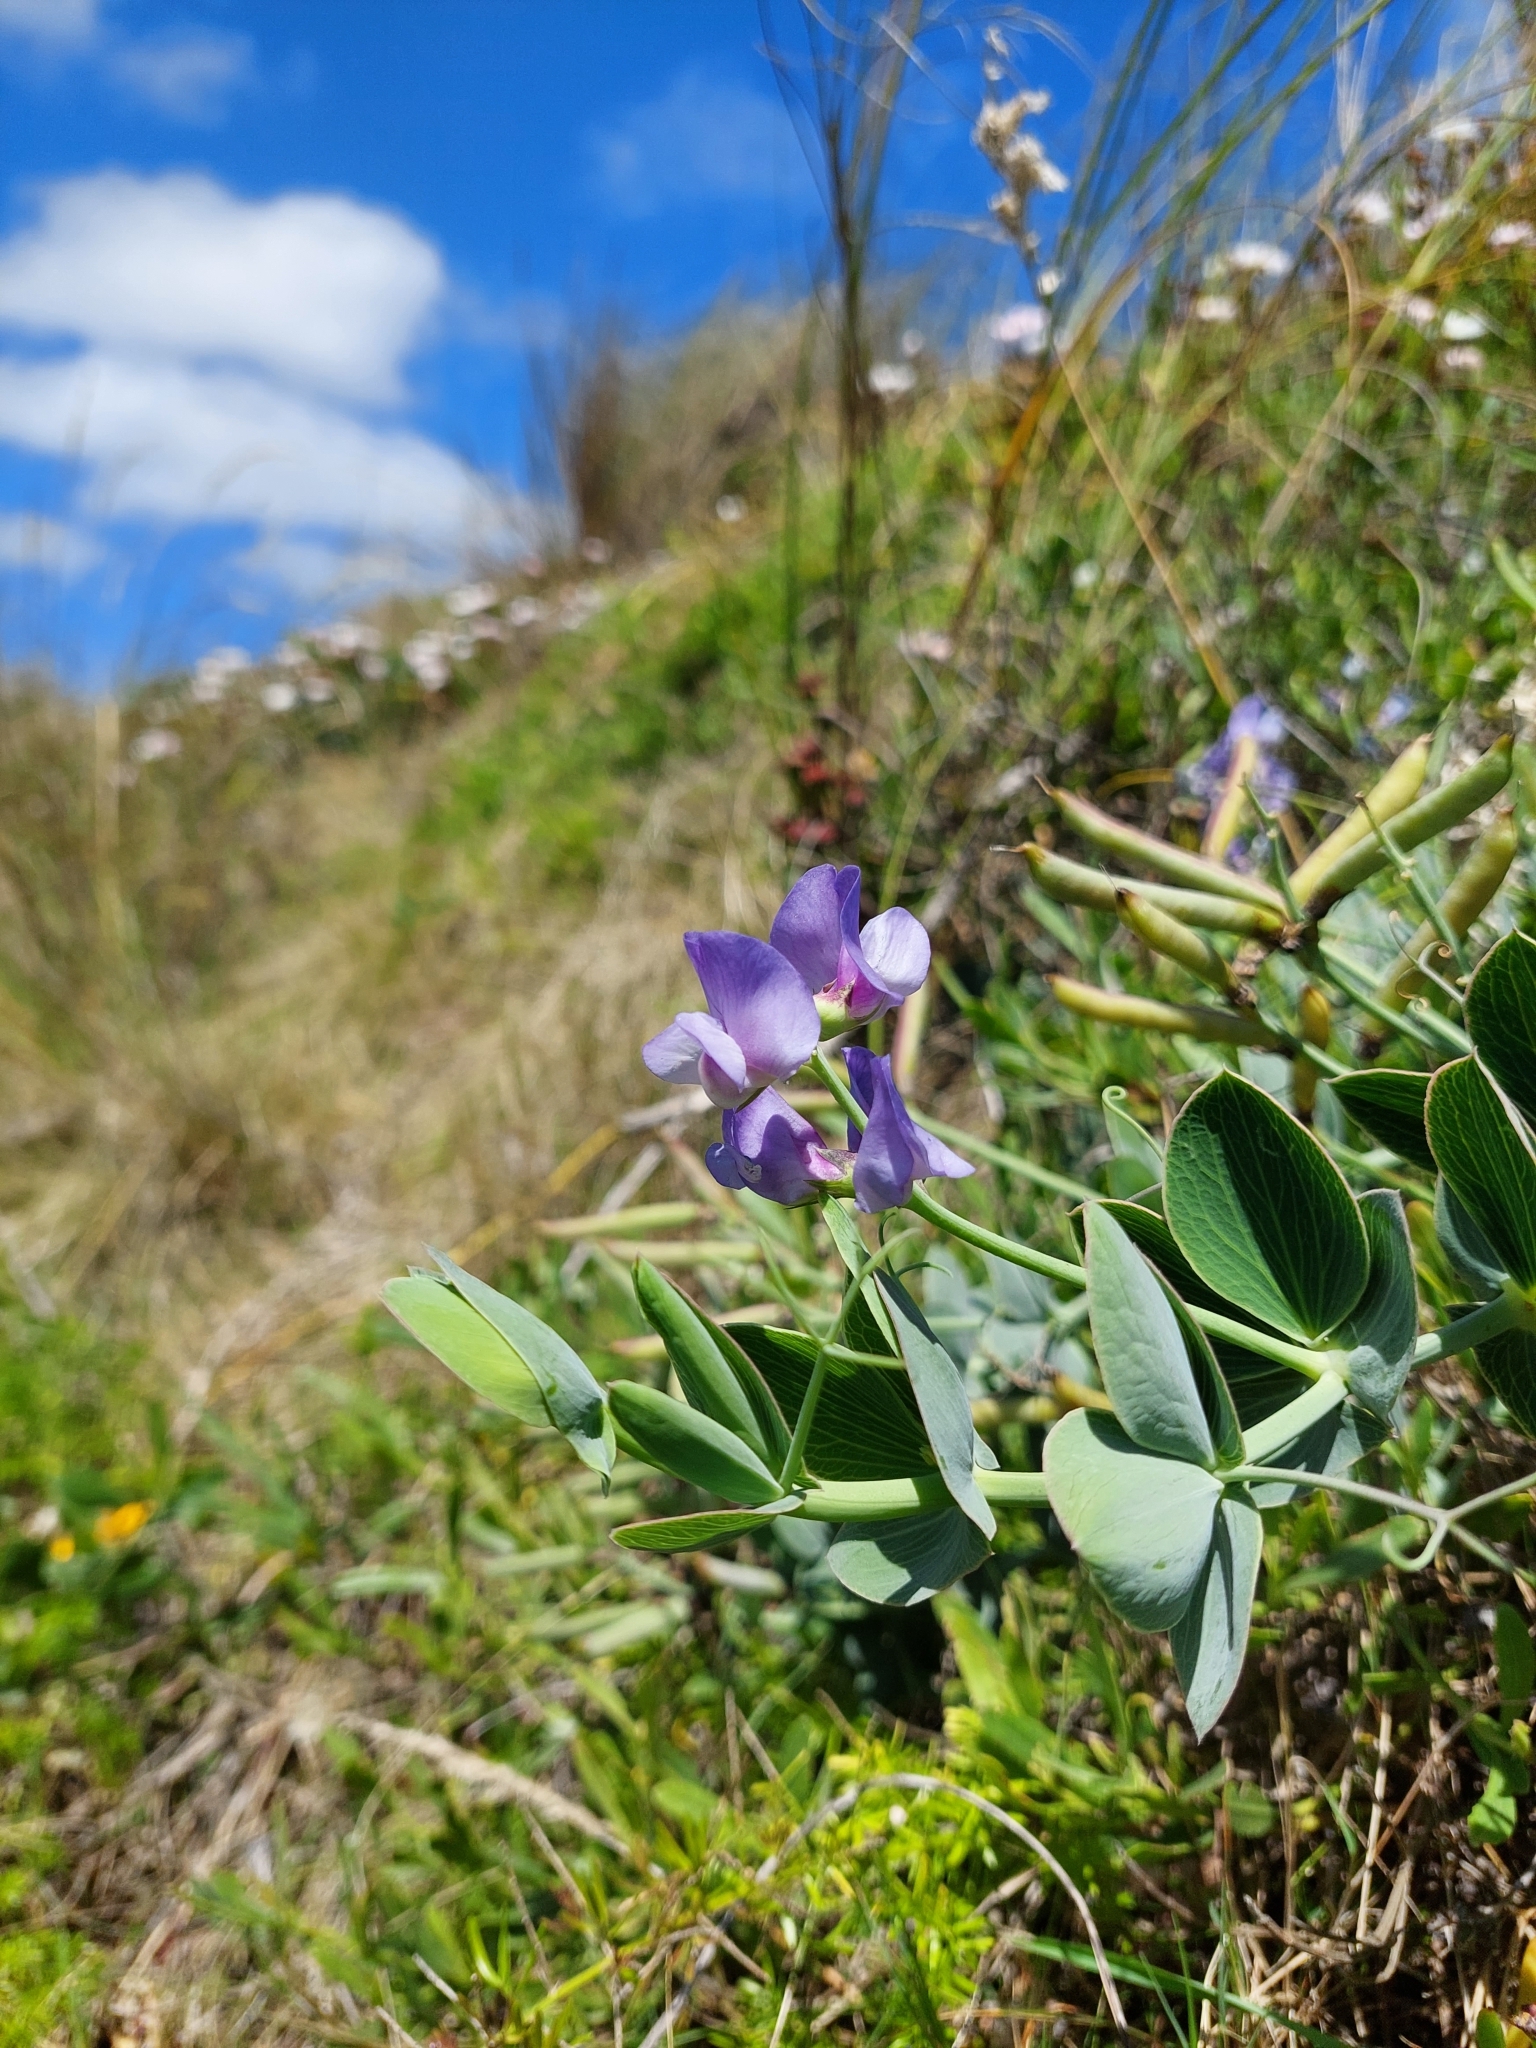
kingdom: Plantae
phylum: Tracheophyta
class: Magnoliopsida
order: Fabales
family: Fabaceae
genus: Lathyrus
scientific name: Lathyrus nervosus
